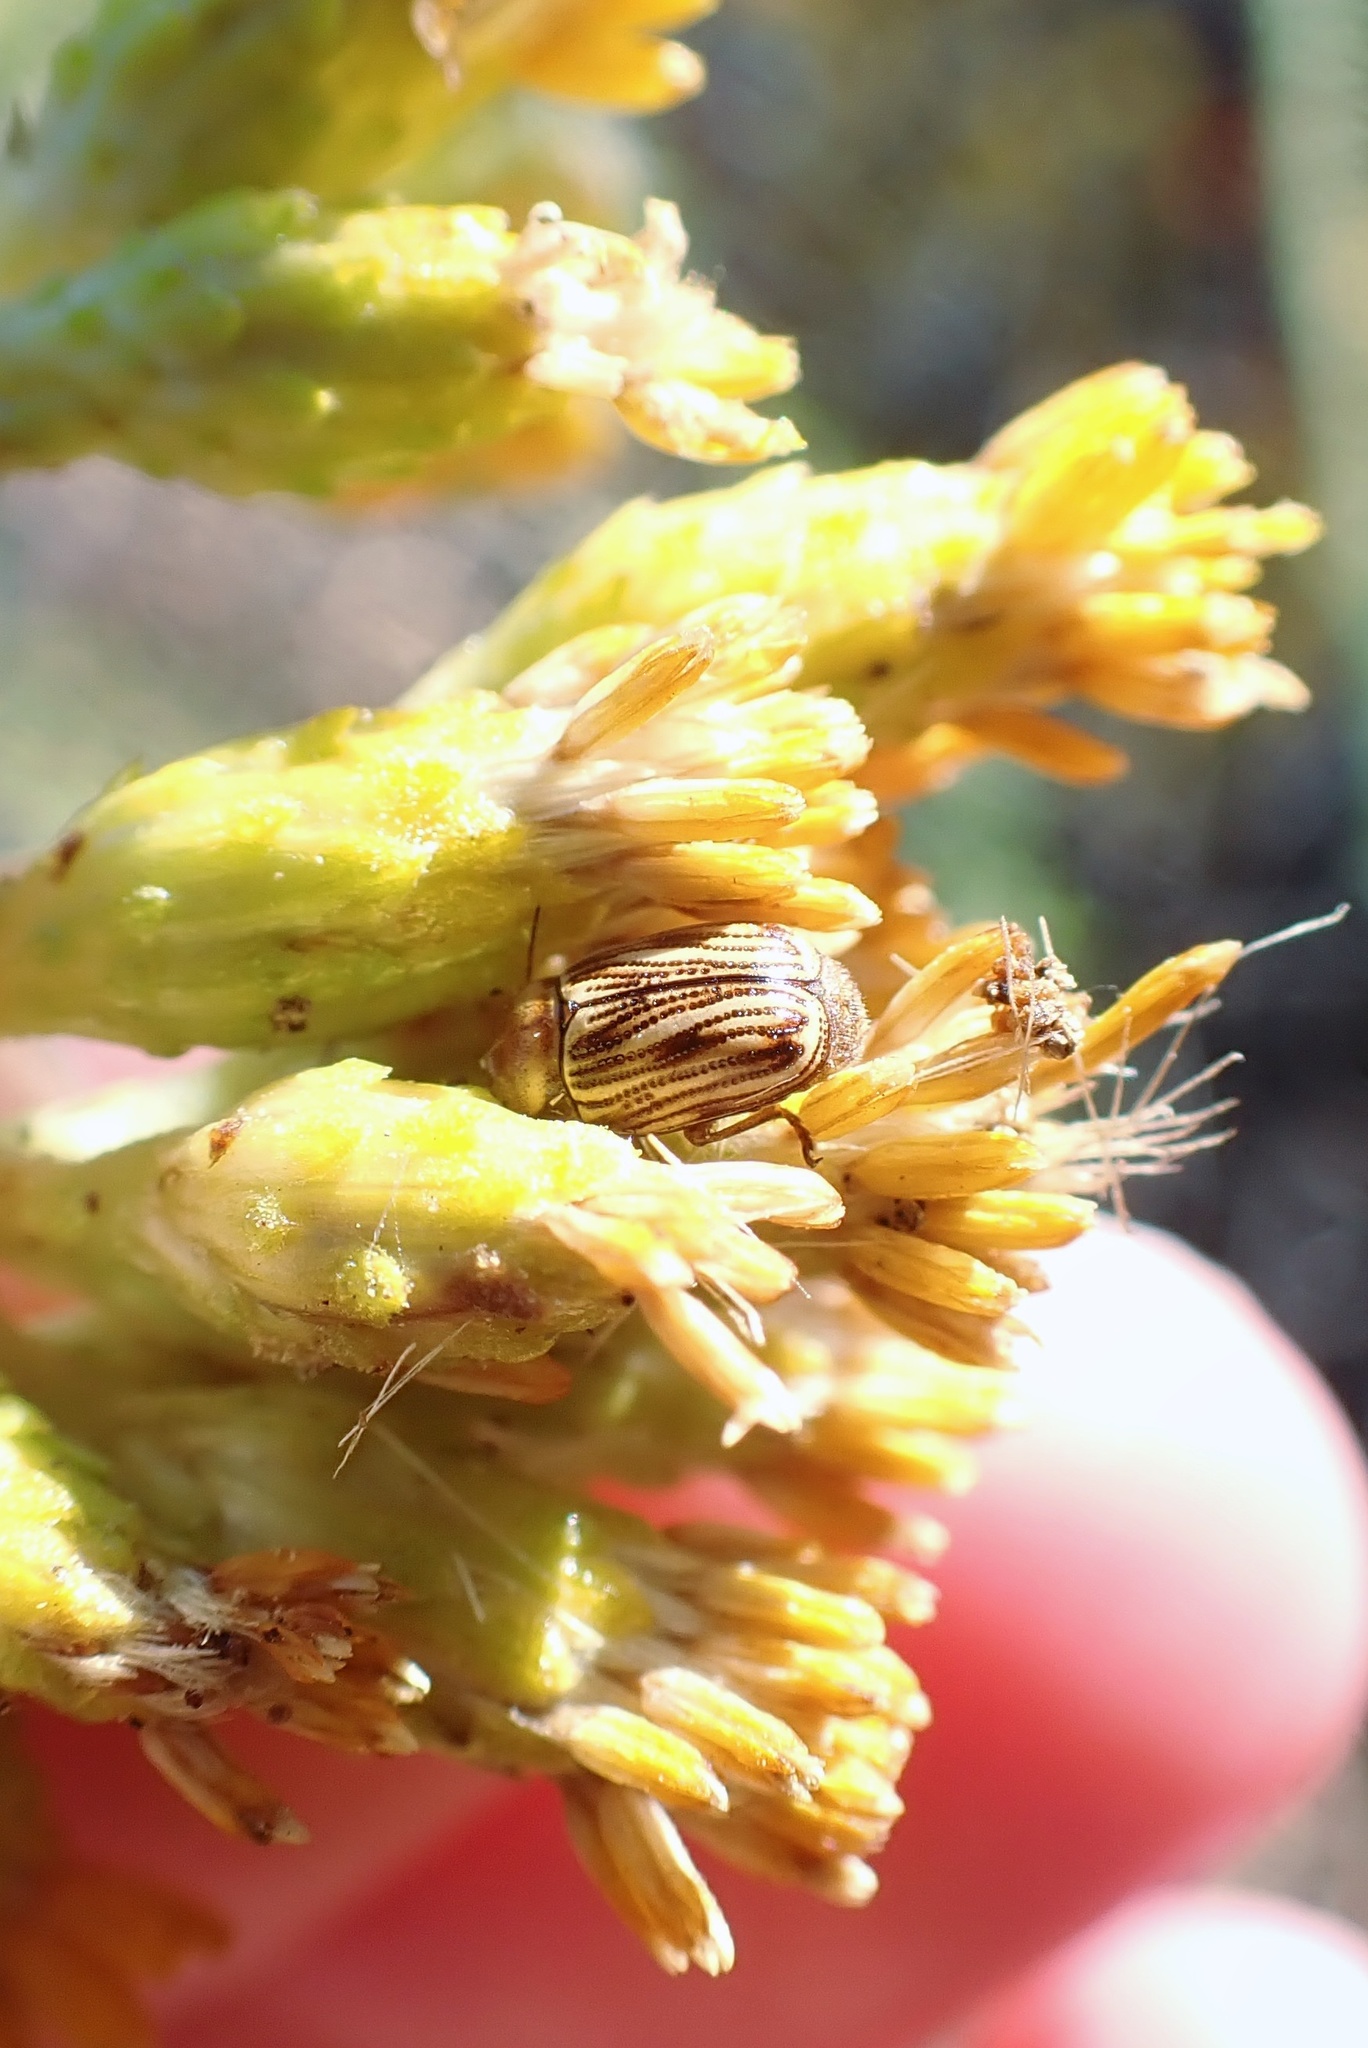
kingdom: Animalia
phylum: Arthropoda
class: Insecta
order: Coleoptera
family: Chrysomelidae
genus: Cryptocephalus
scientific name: Cryptocephalus andrewsi
